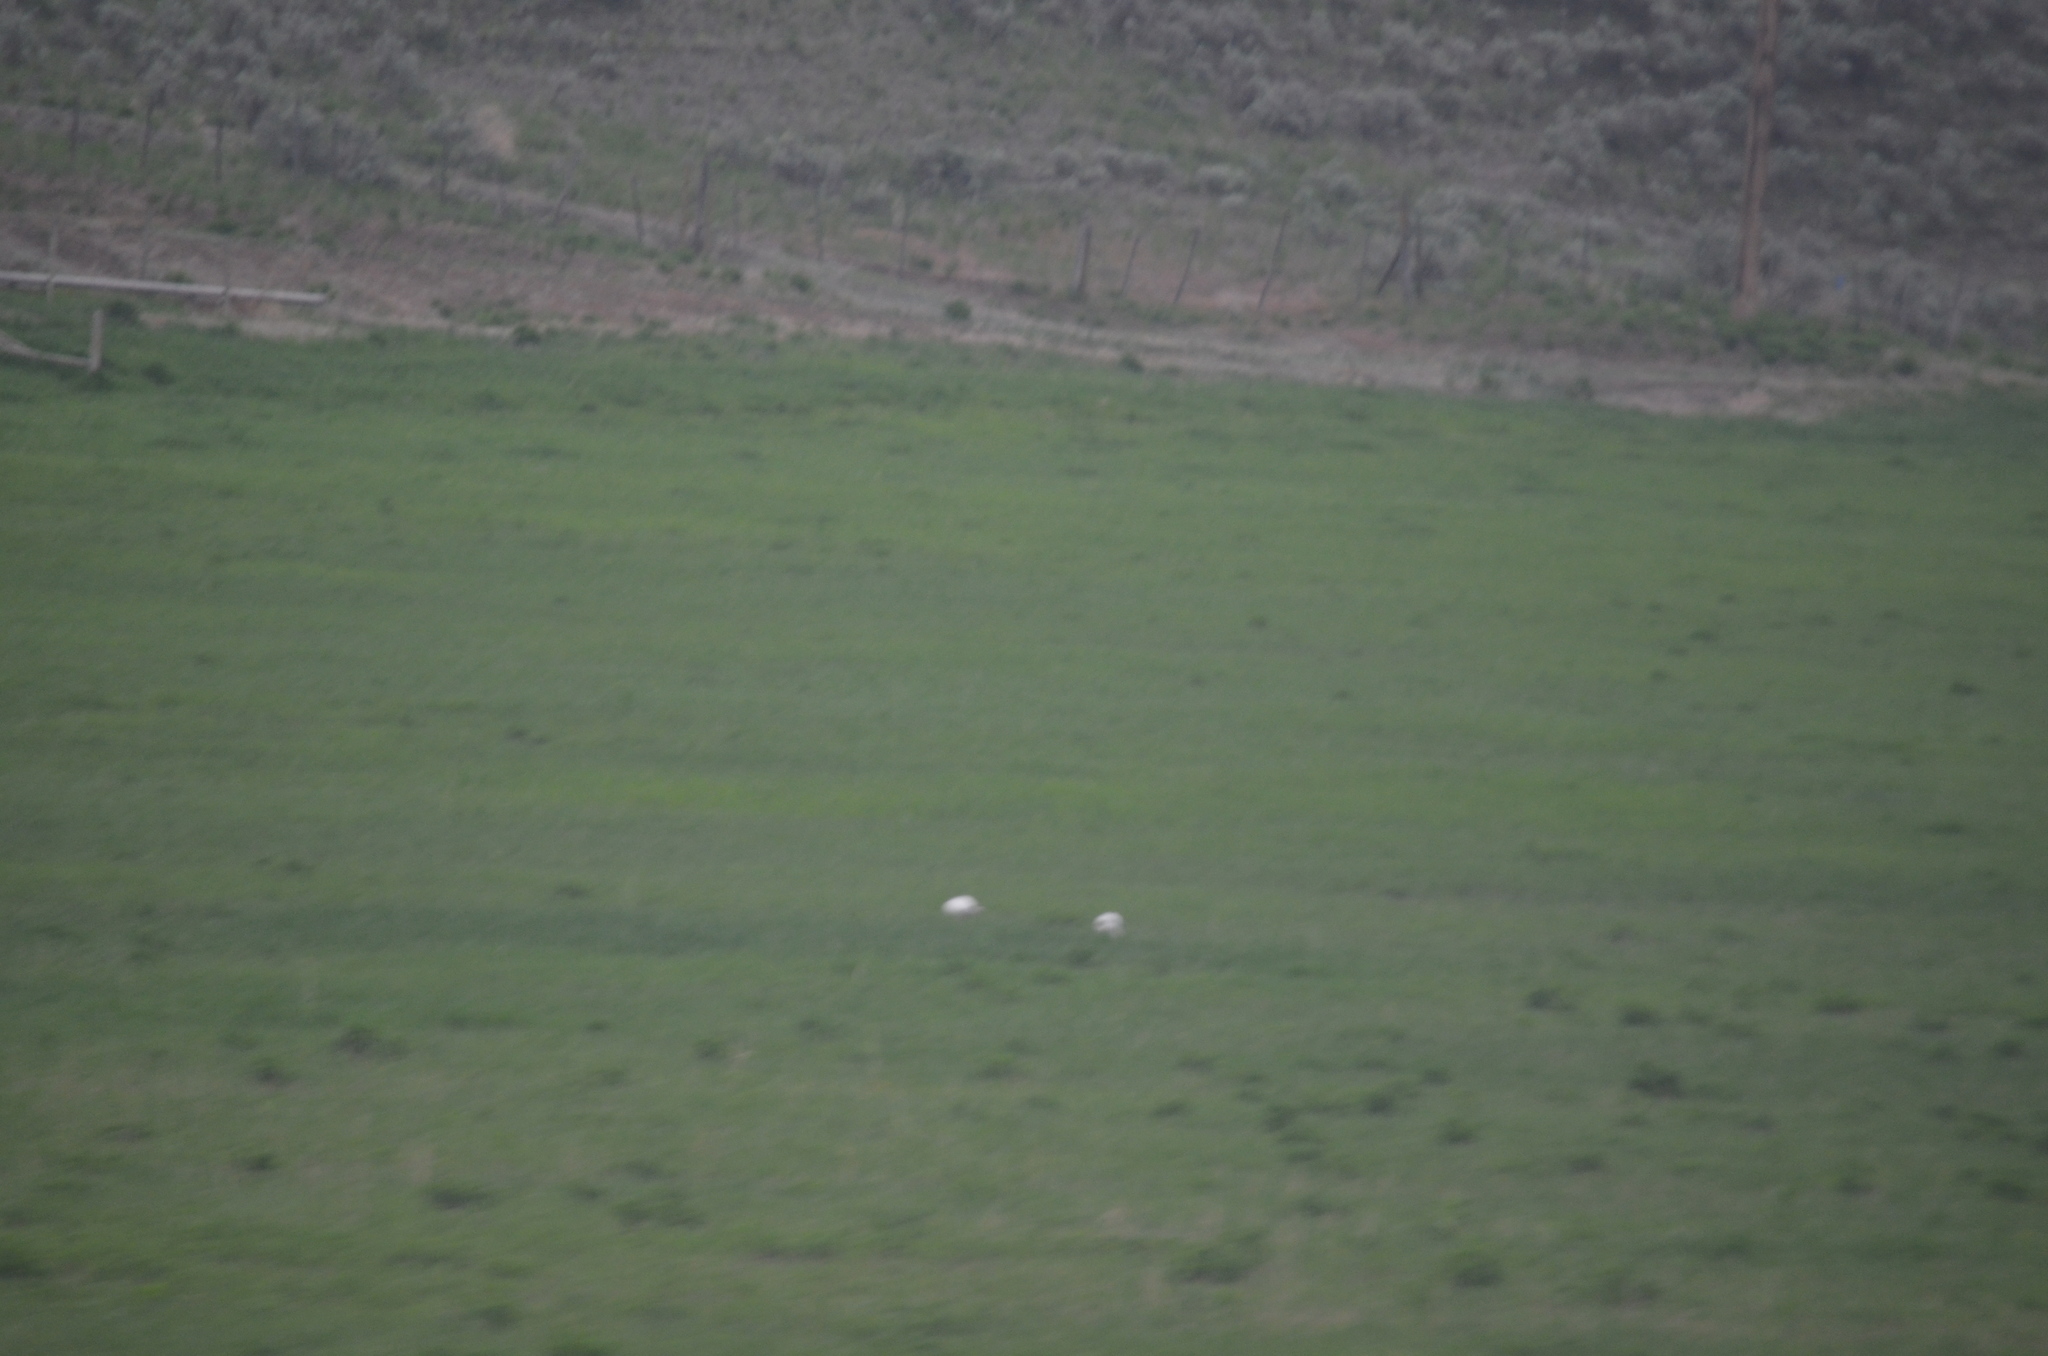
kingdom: Animalia
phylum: Chordata
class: Aves
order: Anseriformes
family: Anatidae
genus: Anser
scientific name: Anser caerulescens
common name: Snow goose
